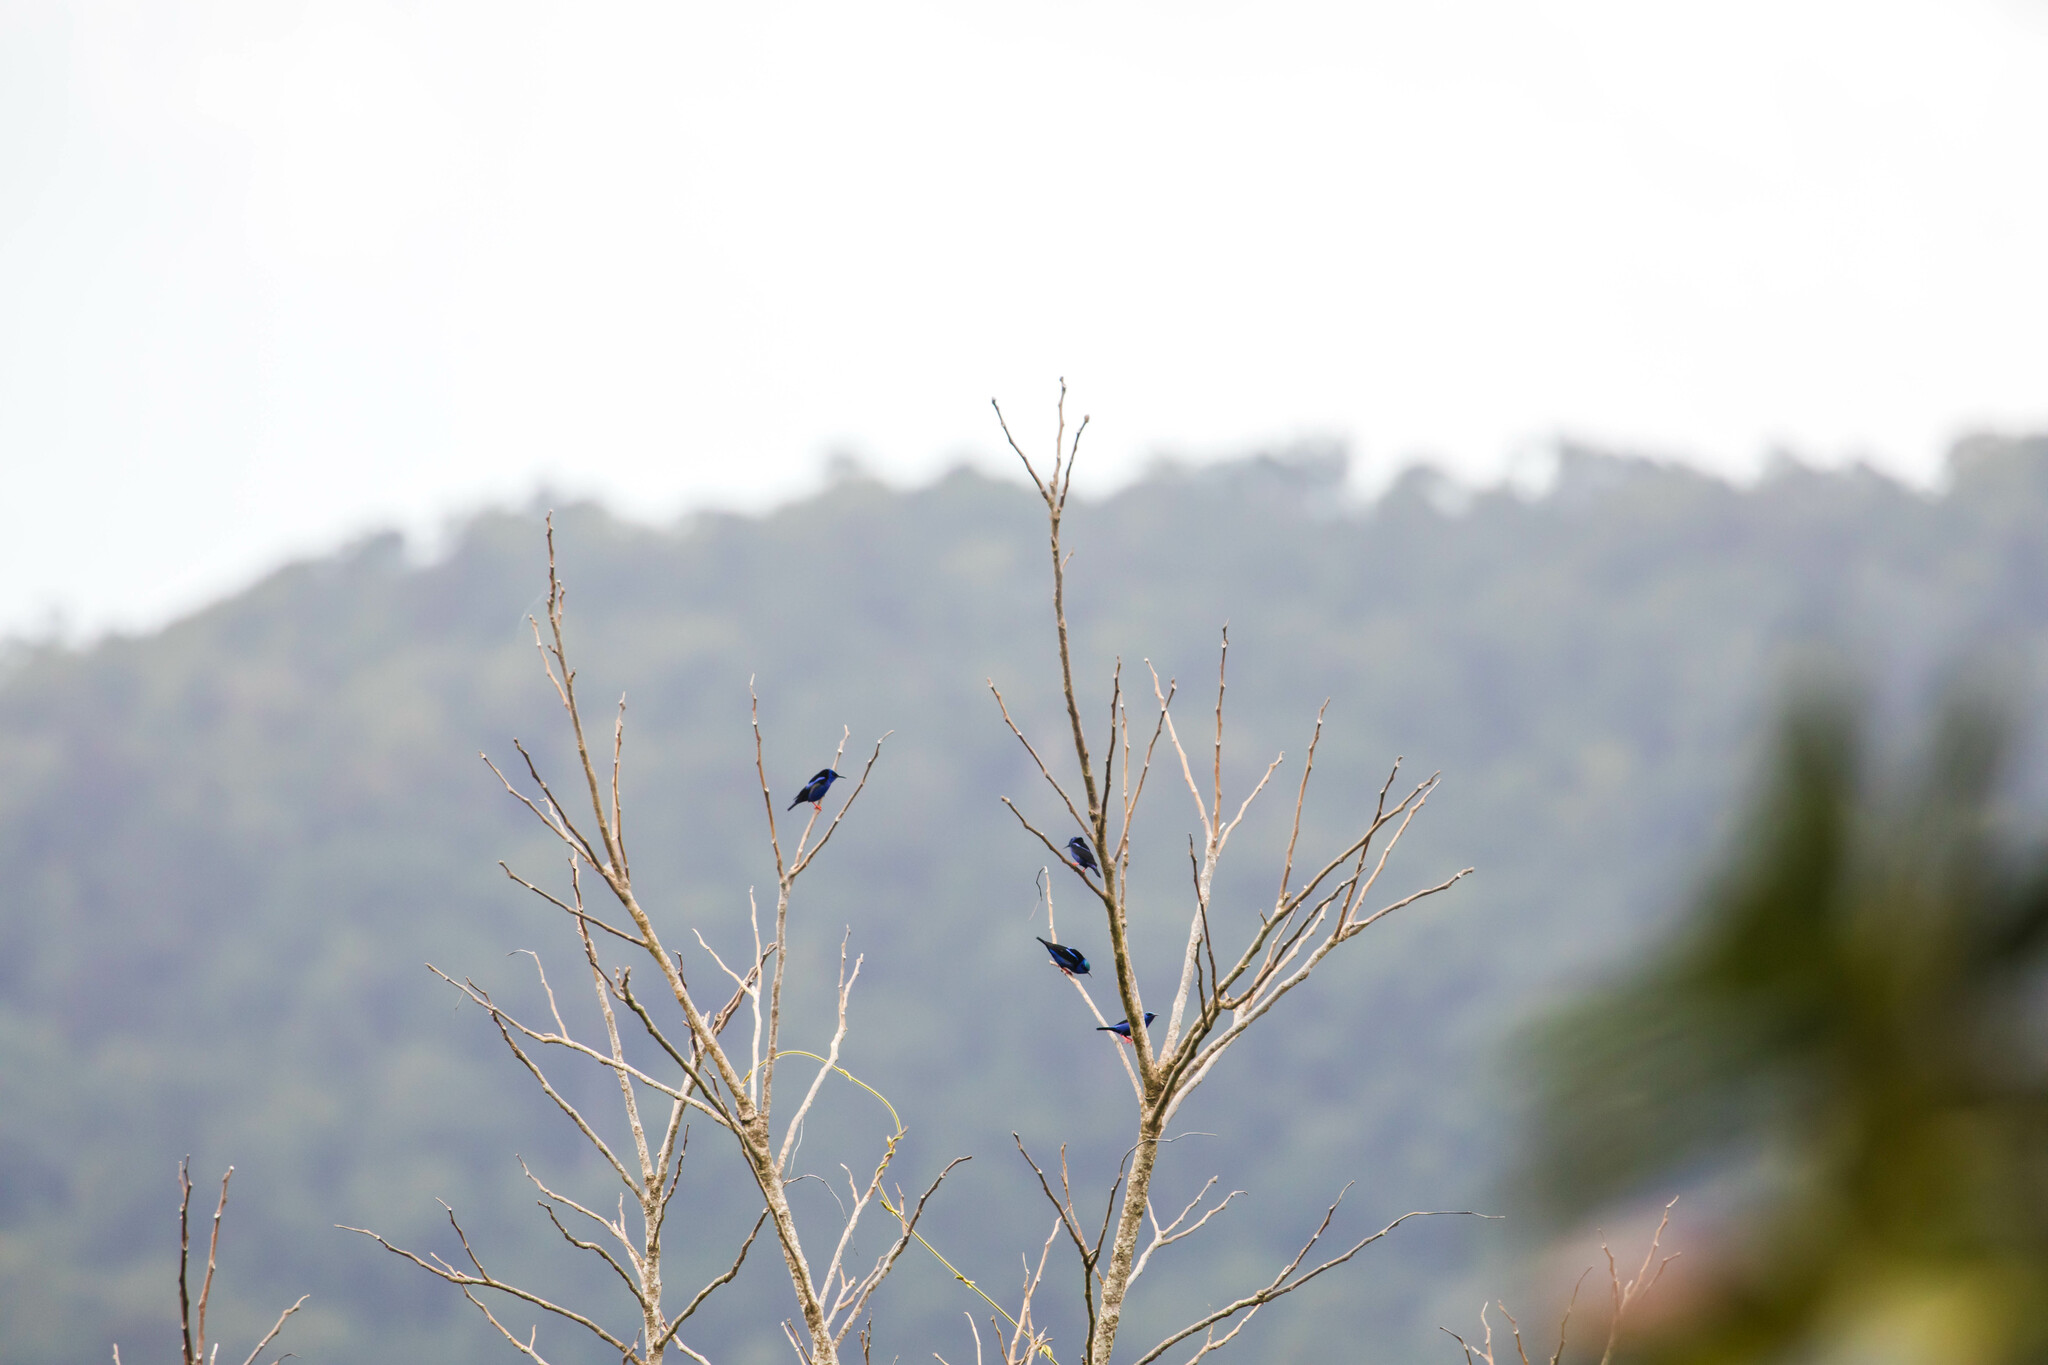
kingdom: Animalia
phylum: Chordata
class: Aves
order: Passeriformes
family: Thraupidae
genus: Cyanerpes
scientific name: Cyanerpes cyaneus
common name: Red-legged honeycreeper
